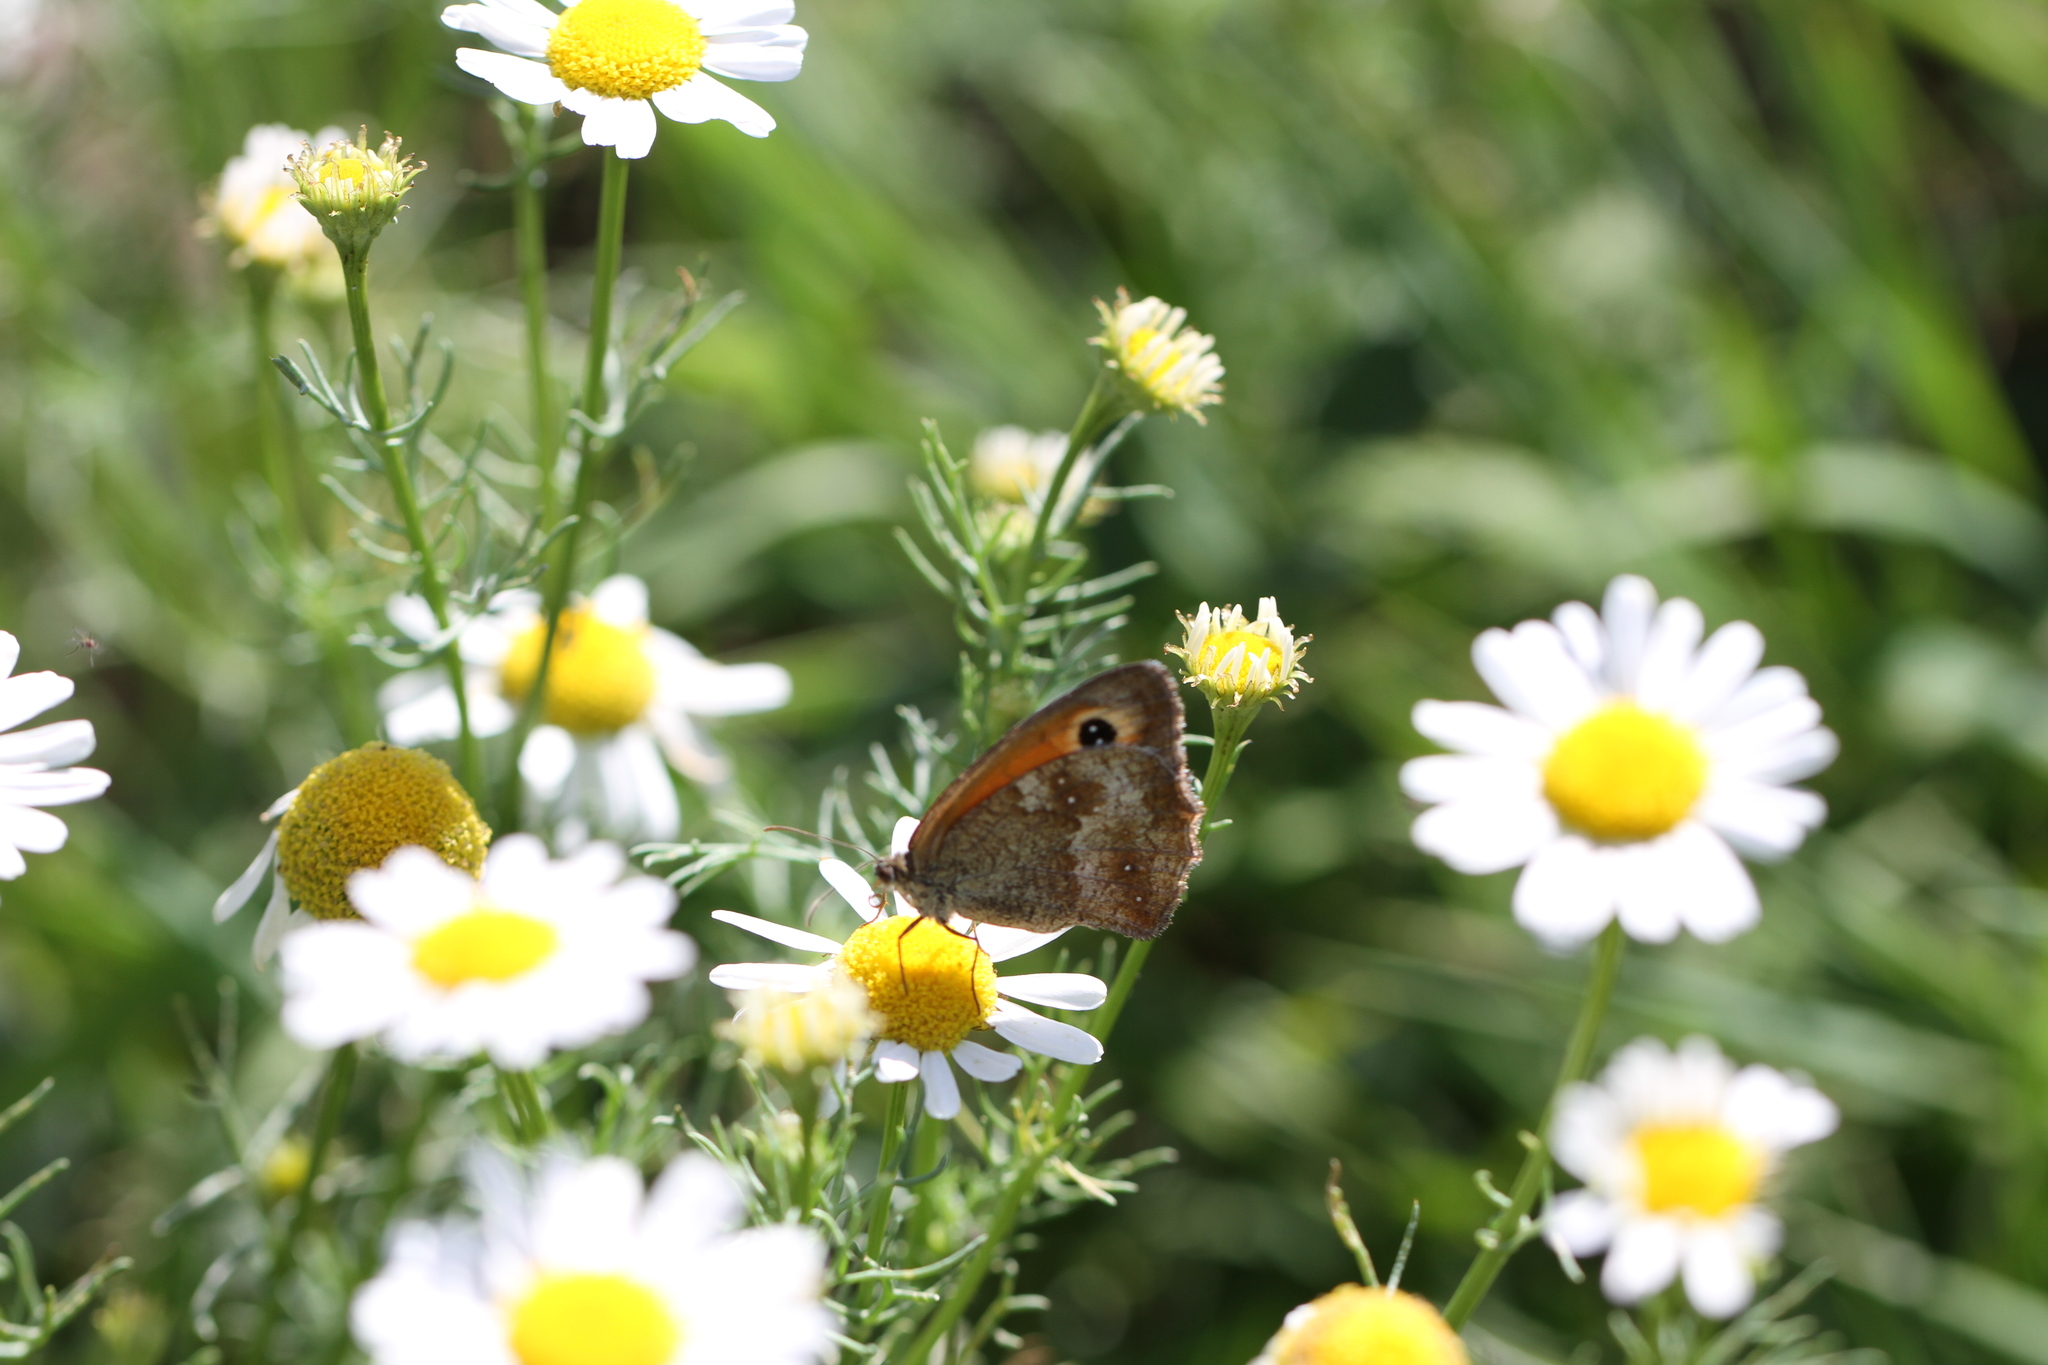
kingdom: Animalia
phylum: Arthropoda
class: Insecta
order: Lepidoptera
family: Nymphalidae
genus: Pyronia
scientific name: Pyronia tithonus
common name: Gatekeeper
